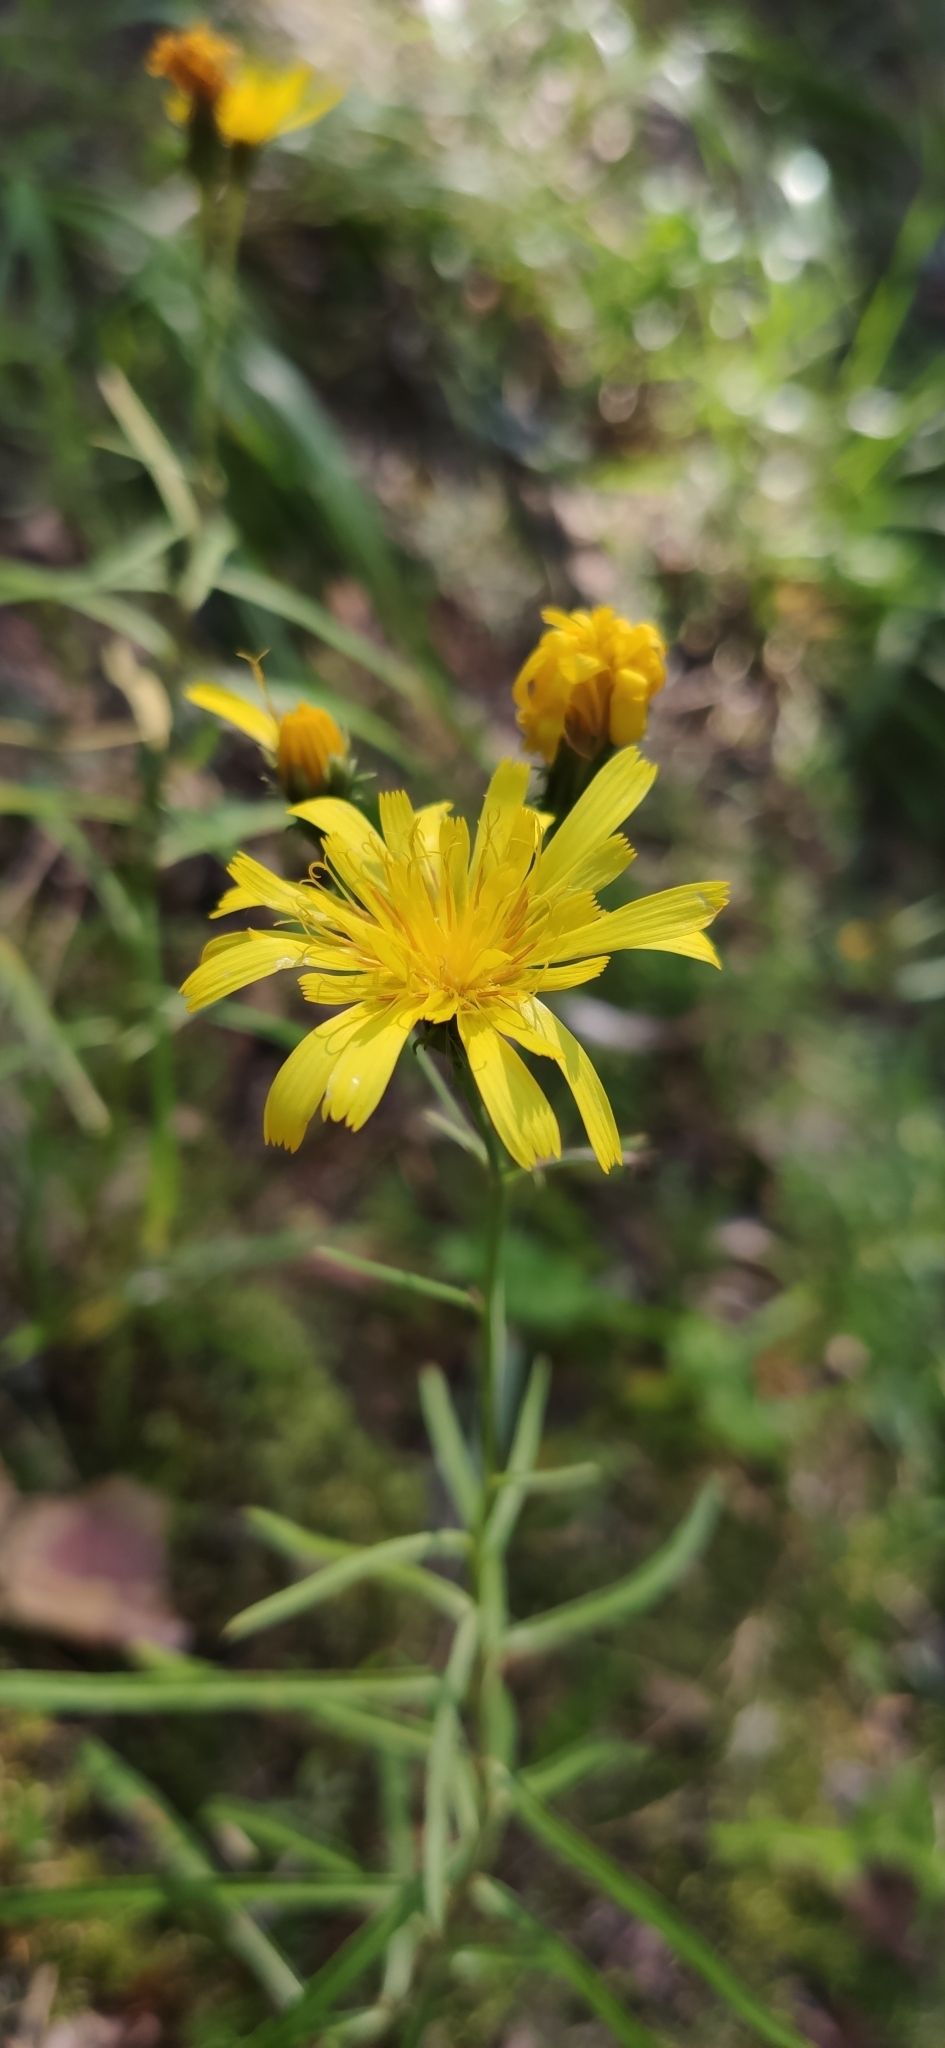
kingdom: Plantae
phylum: Tracheophyta
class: Magnoliopsida
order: Asterales
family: Asteraceae
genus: Hieracium
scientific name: Hieracium umbellatum
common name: Northern hawkweed
